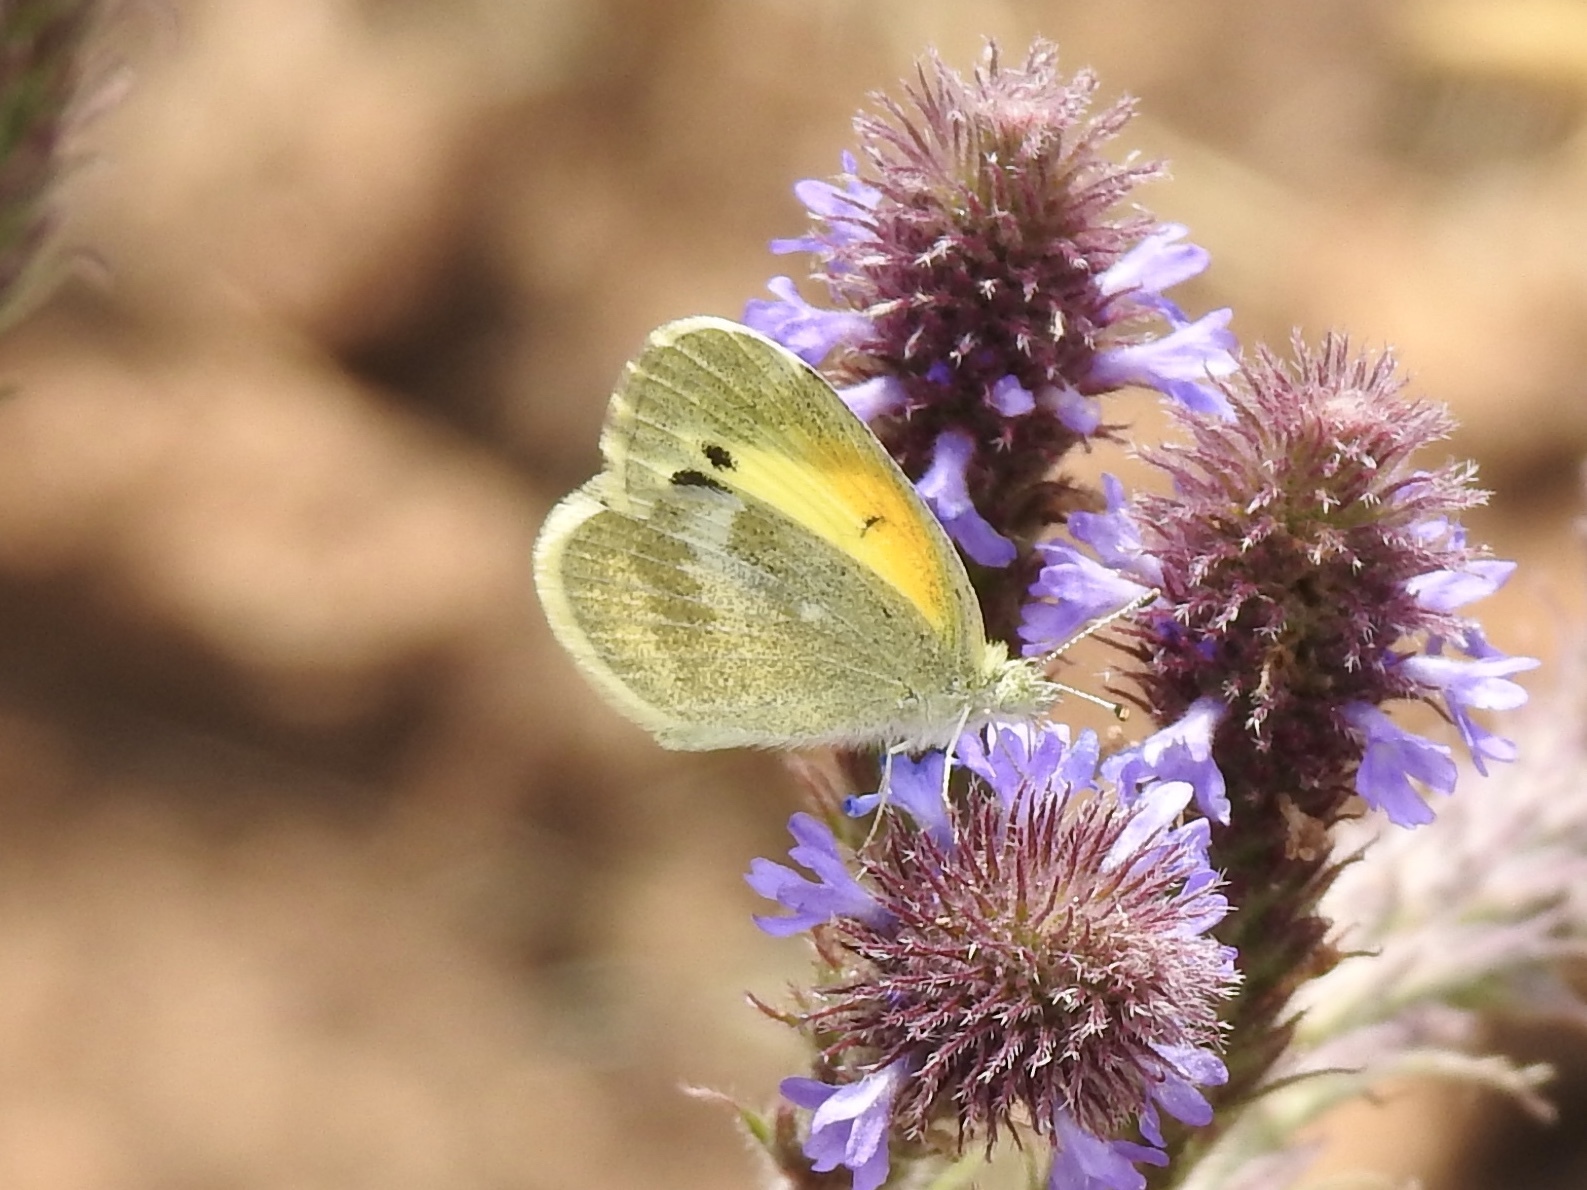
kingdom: Animalia
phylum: Arthropoda
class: Insecta
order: Lepidoptera
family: Pieridae
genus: Nathalis
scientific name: Nathalis iole
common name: Dainty sulphur
